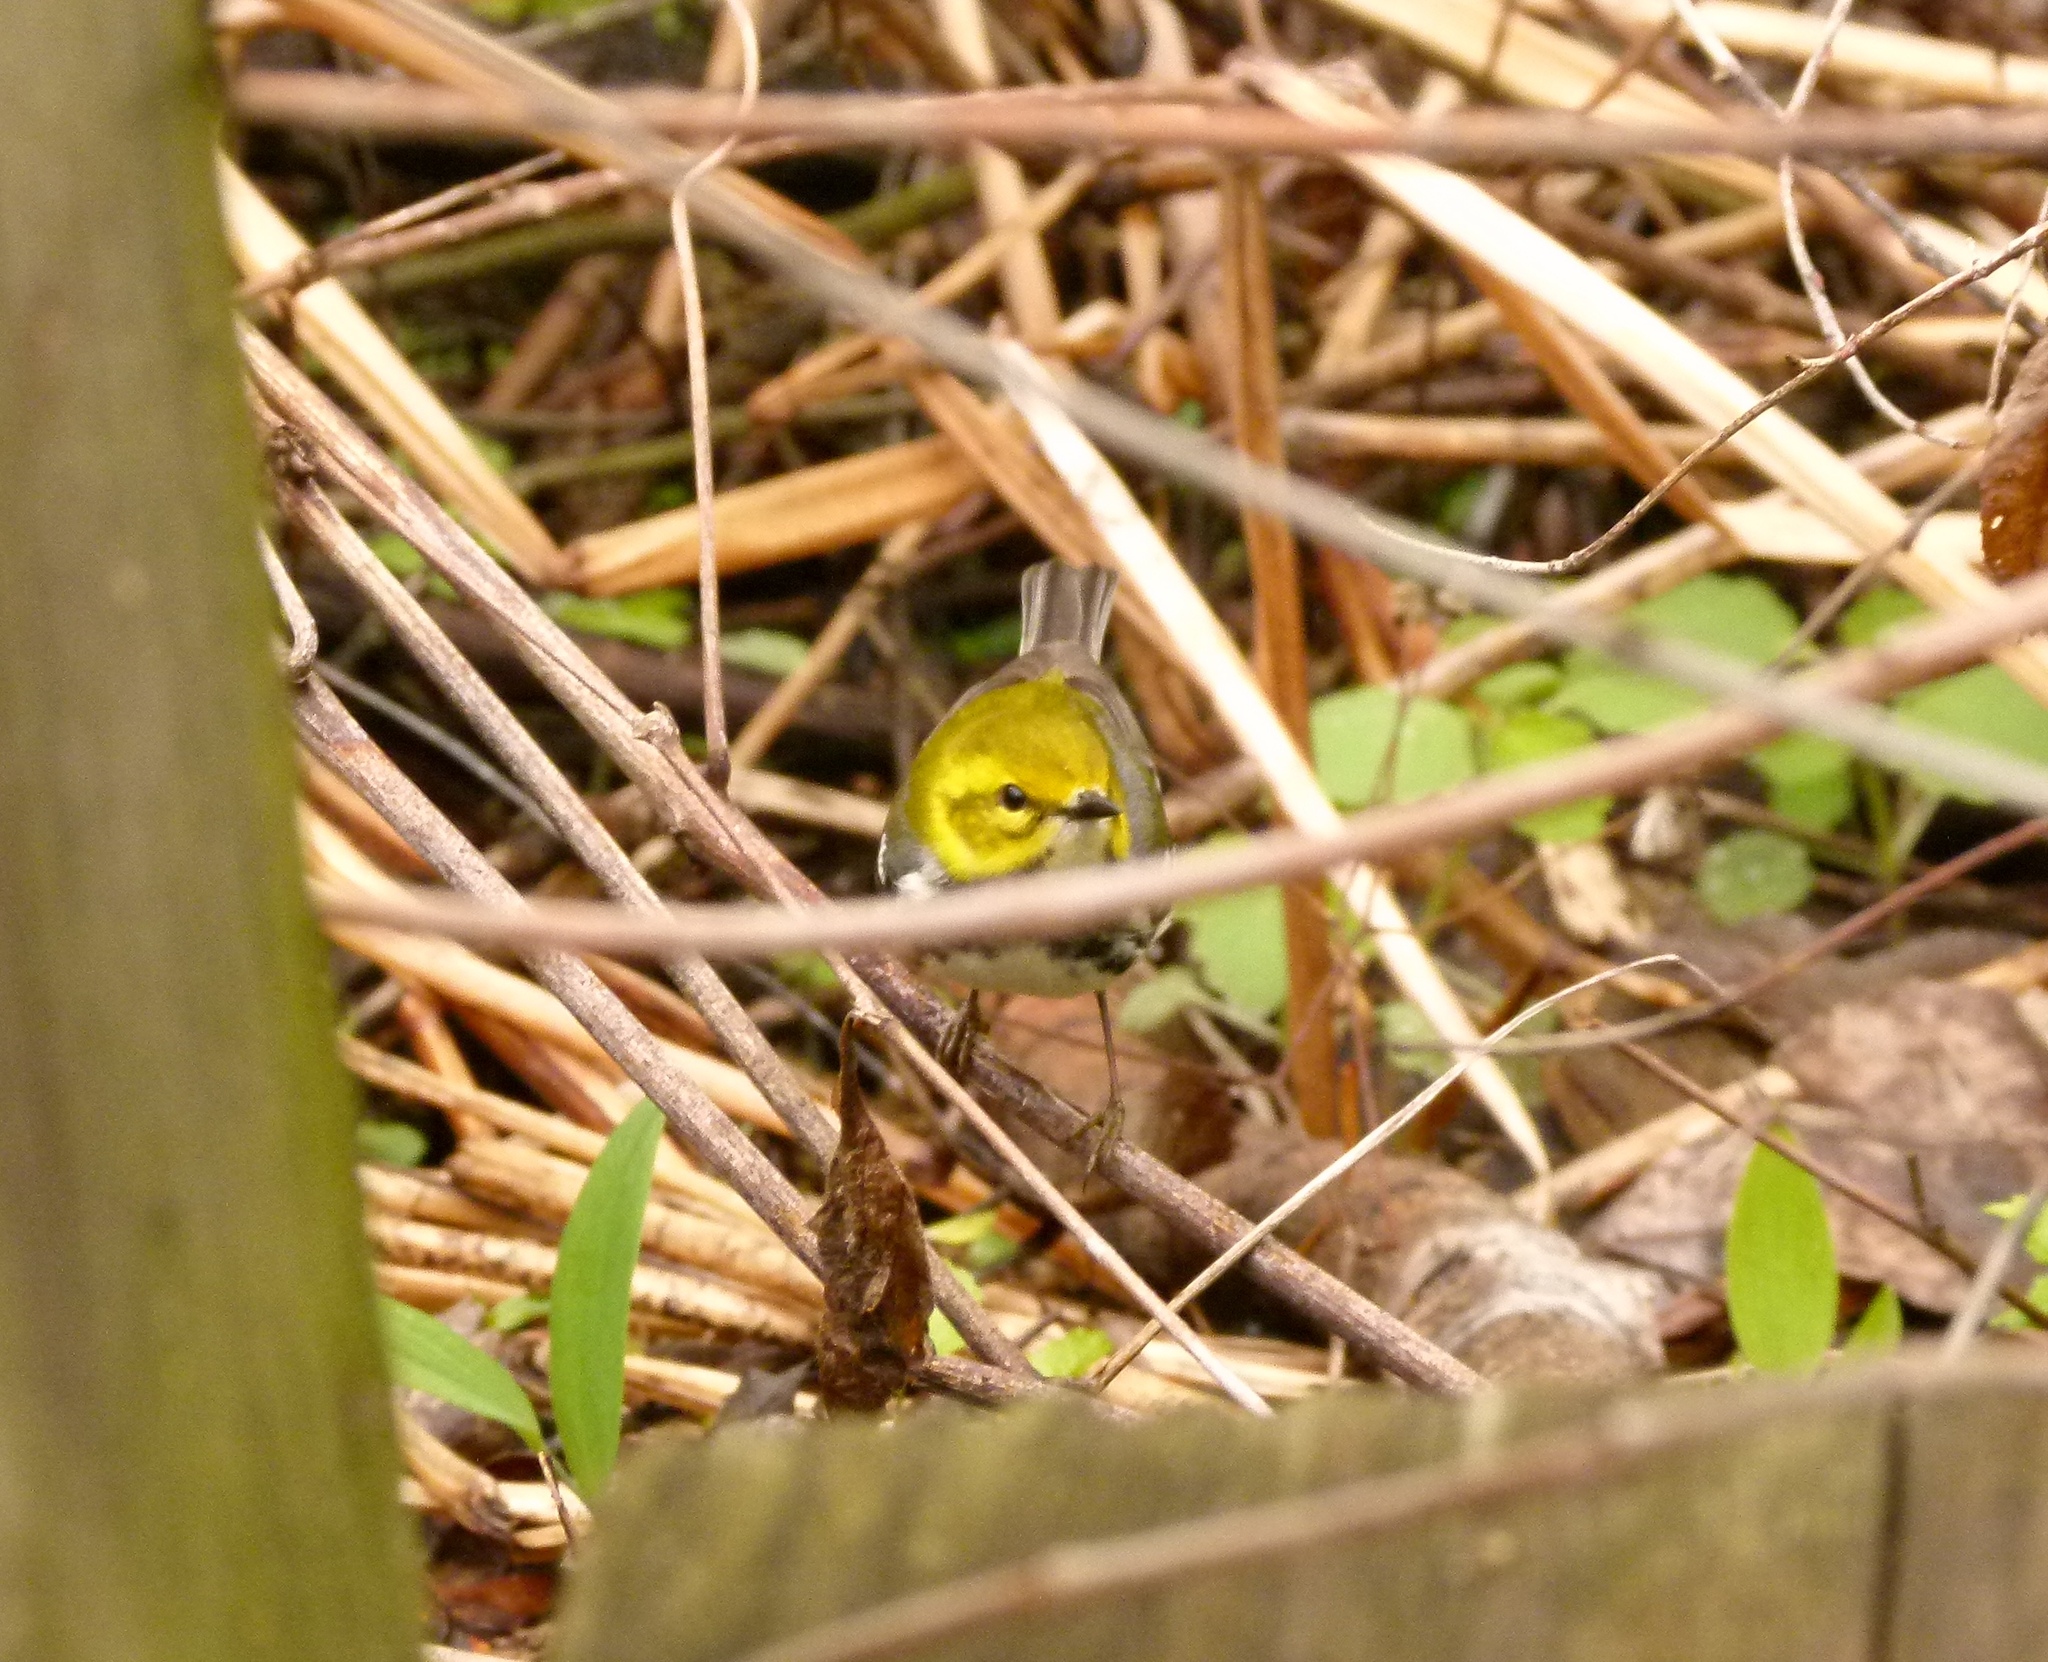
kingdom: Animalia
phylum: Chordata
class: Aves
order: Passeriformes
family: Parulidae
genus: Setophaga
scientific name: Setophaga virens
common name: Black-throated green warbler
